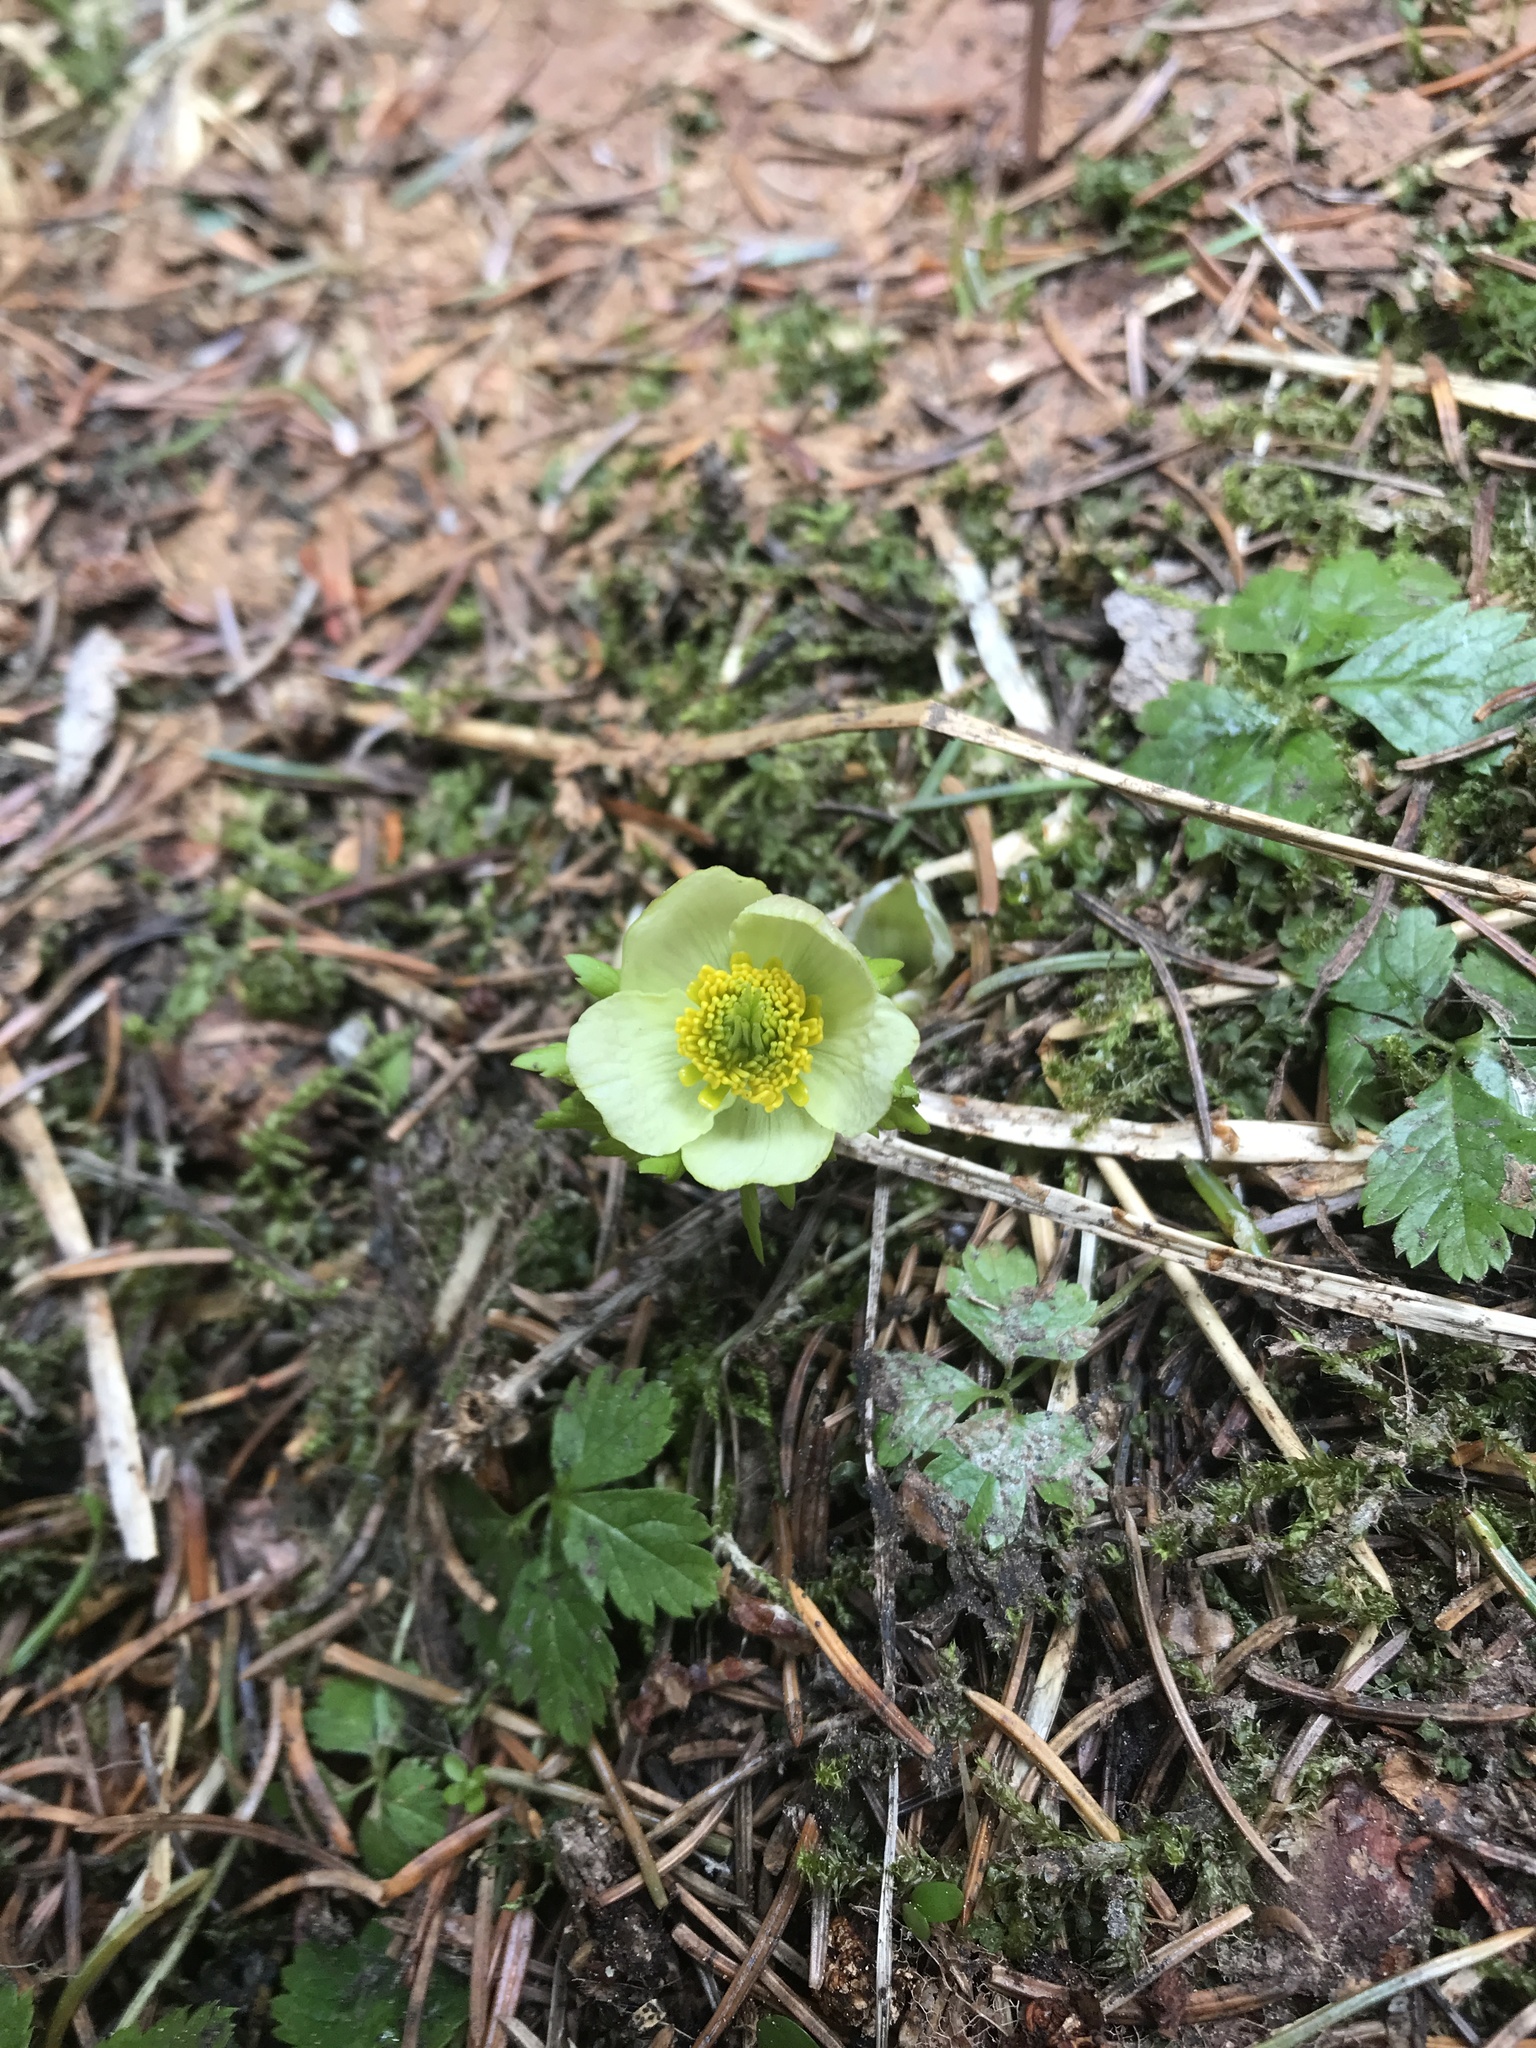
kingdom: Plantae
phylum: Tracheophyta
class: Magnoliopsida
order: Ranunculales
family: Ranunculaceae
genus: Trollius
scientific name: Trollius laxus
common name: American globeflower
